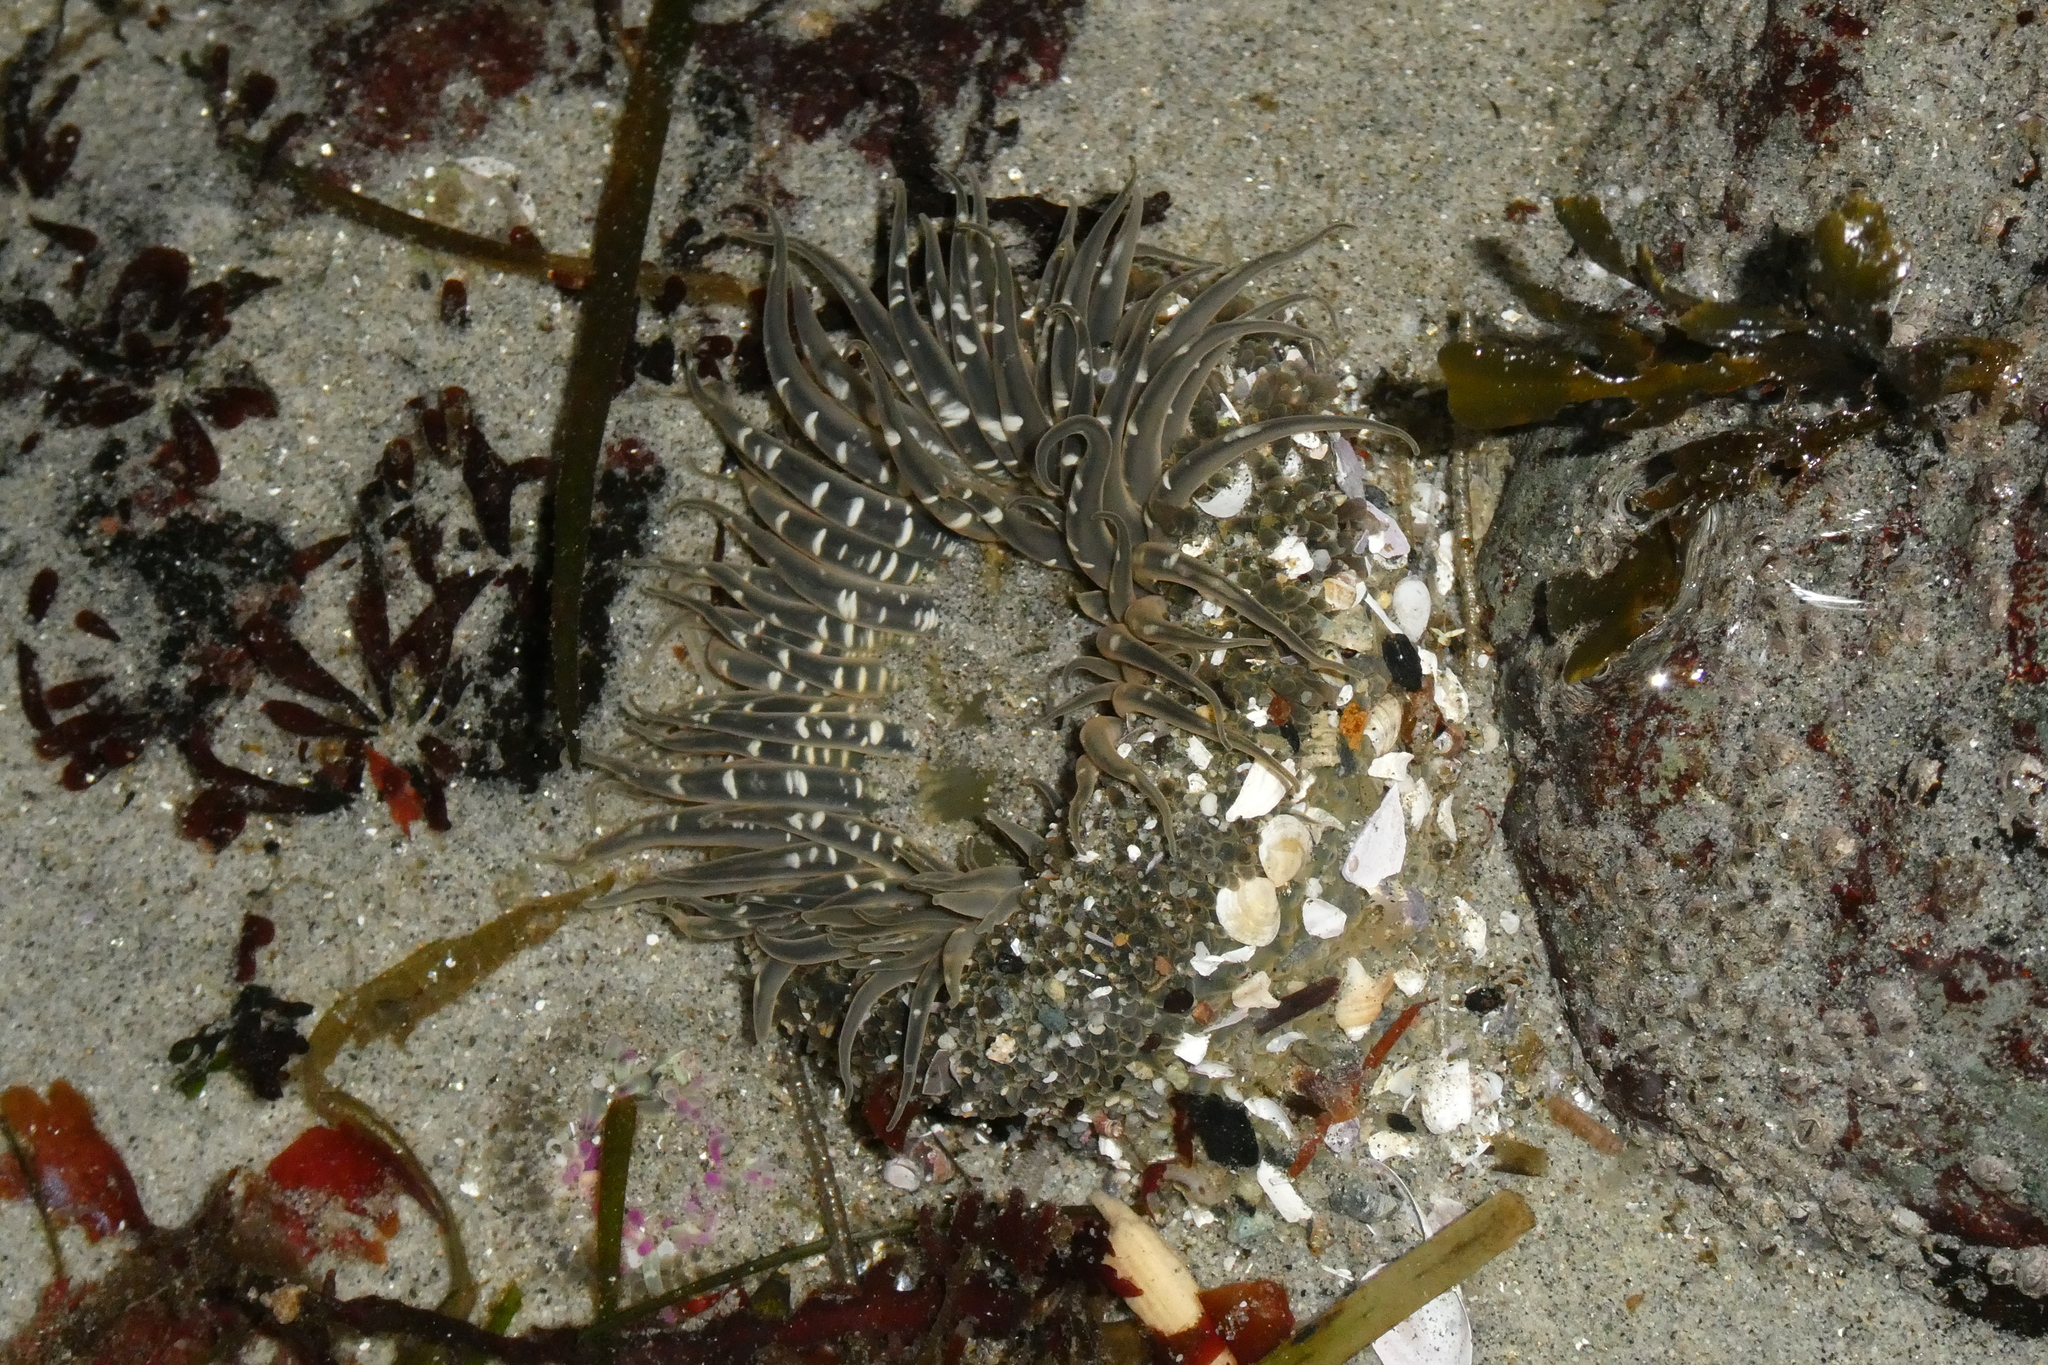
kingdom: Animalia
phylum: Cnidaria
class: Anthozoa
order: Actiniaria
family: Actiniidae
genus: Anthopleura
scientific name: Anthopleura artemisia
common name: Buried sea anemone
